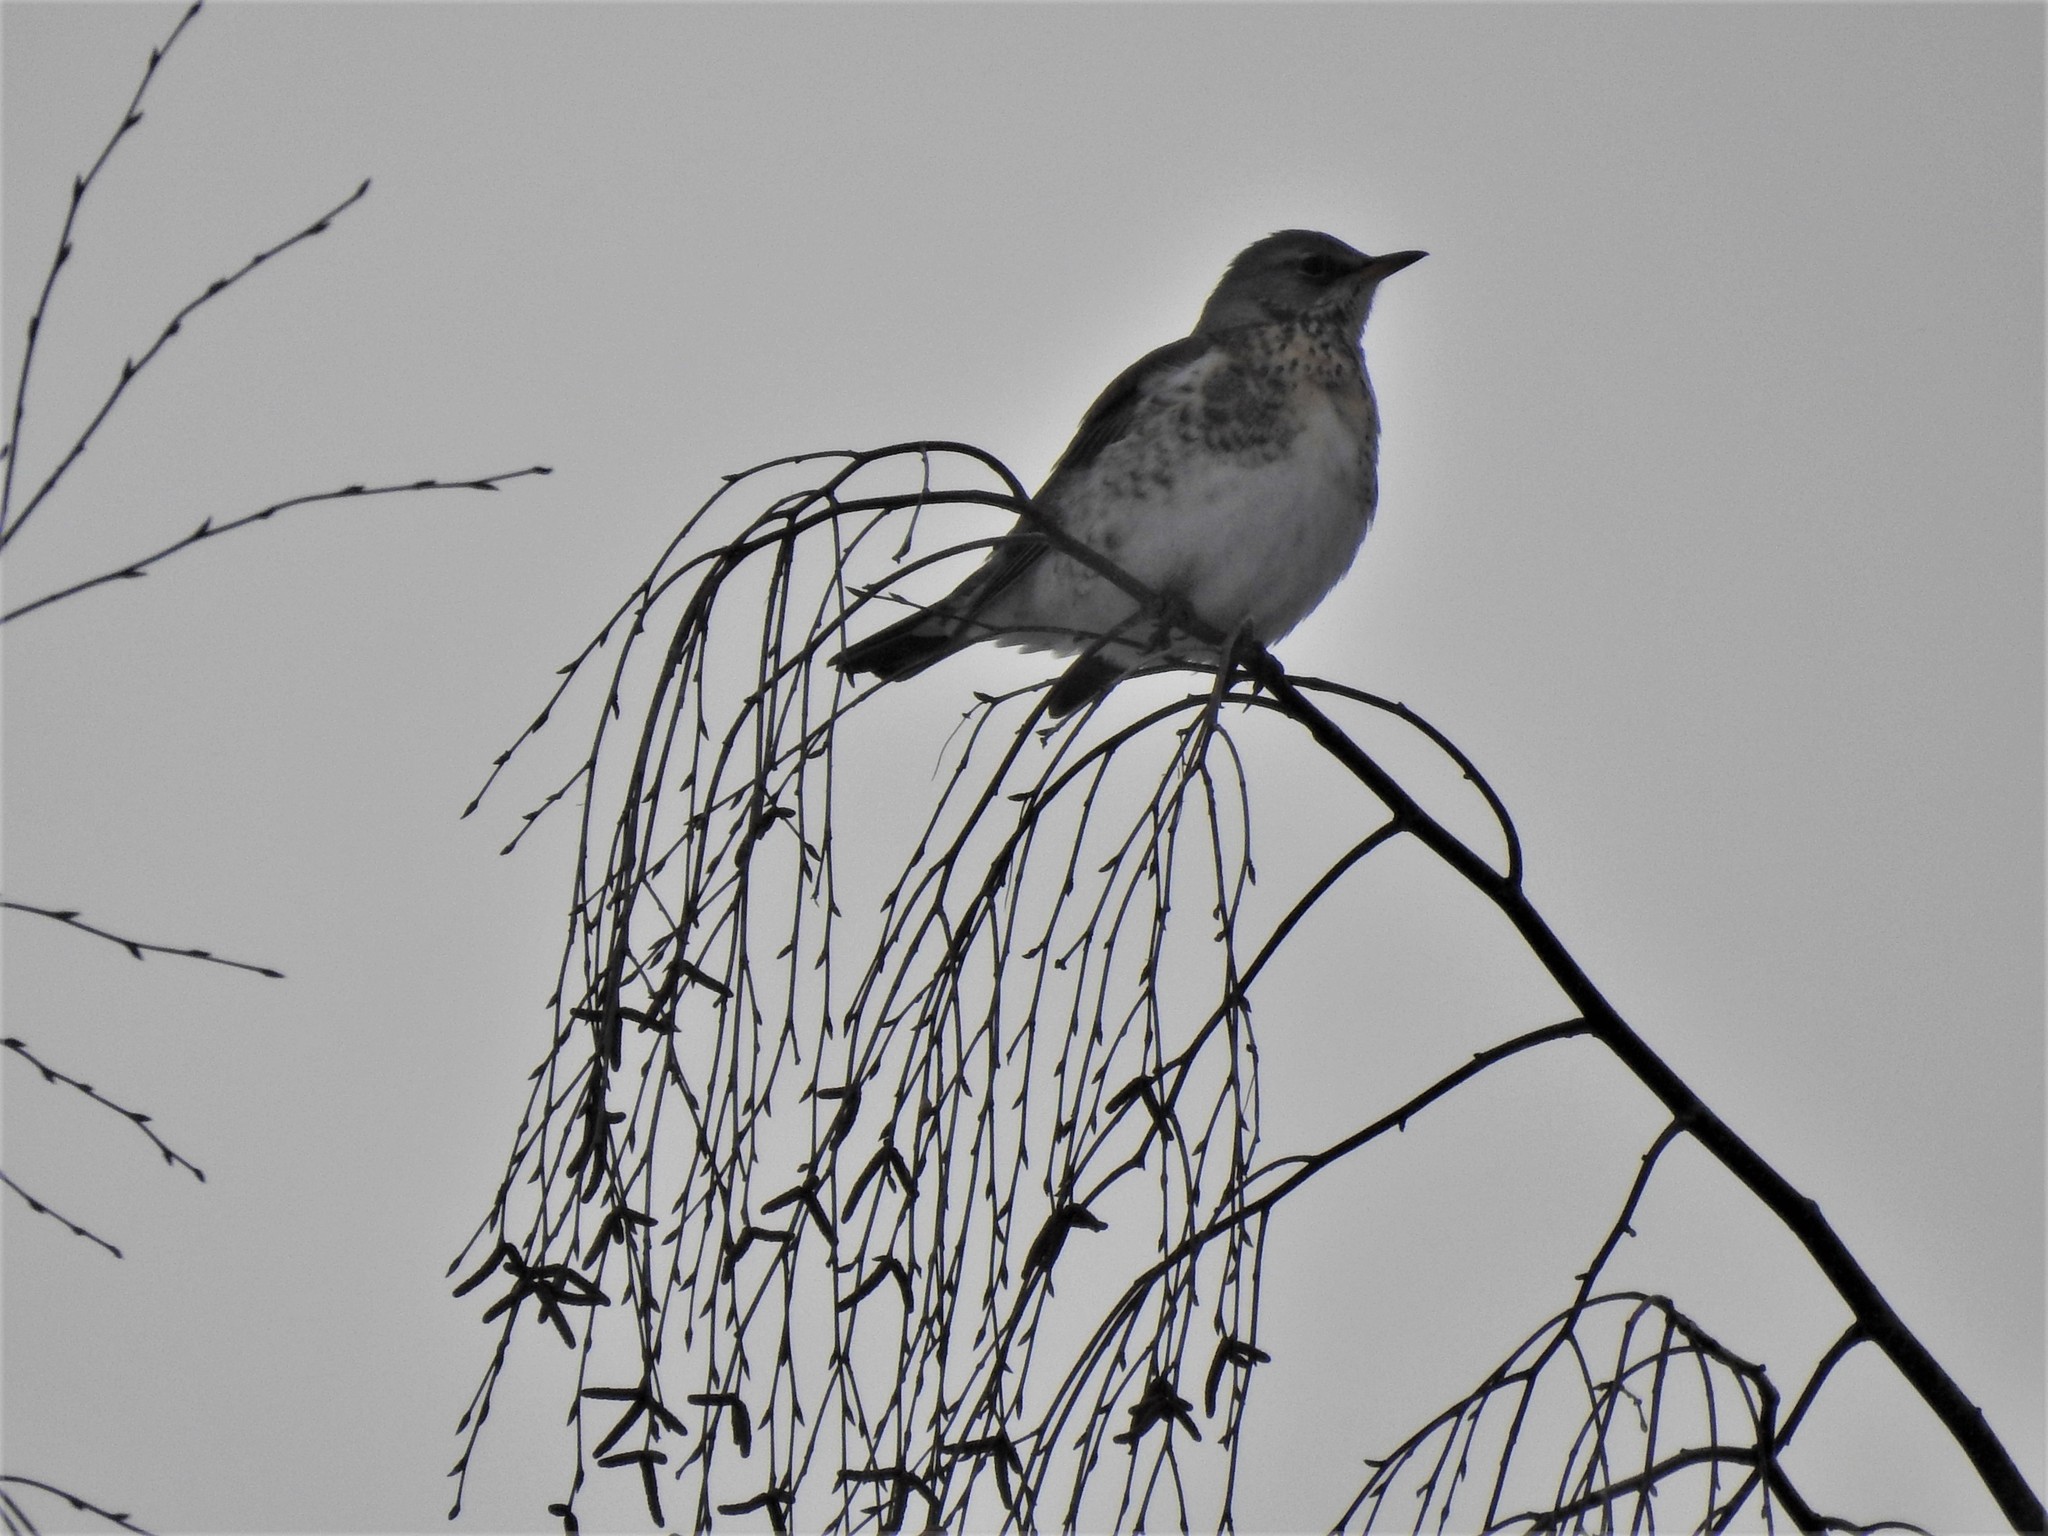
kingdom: Animalia
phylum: Chordata
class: Aves
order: Passeriformes
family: Turdidae
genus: Turdus
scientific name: Turdus pilaris
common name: Fieldfare
